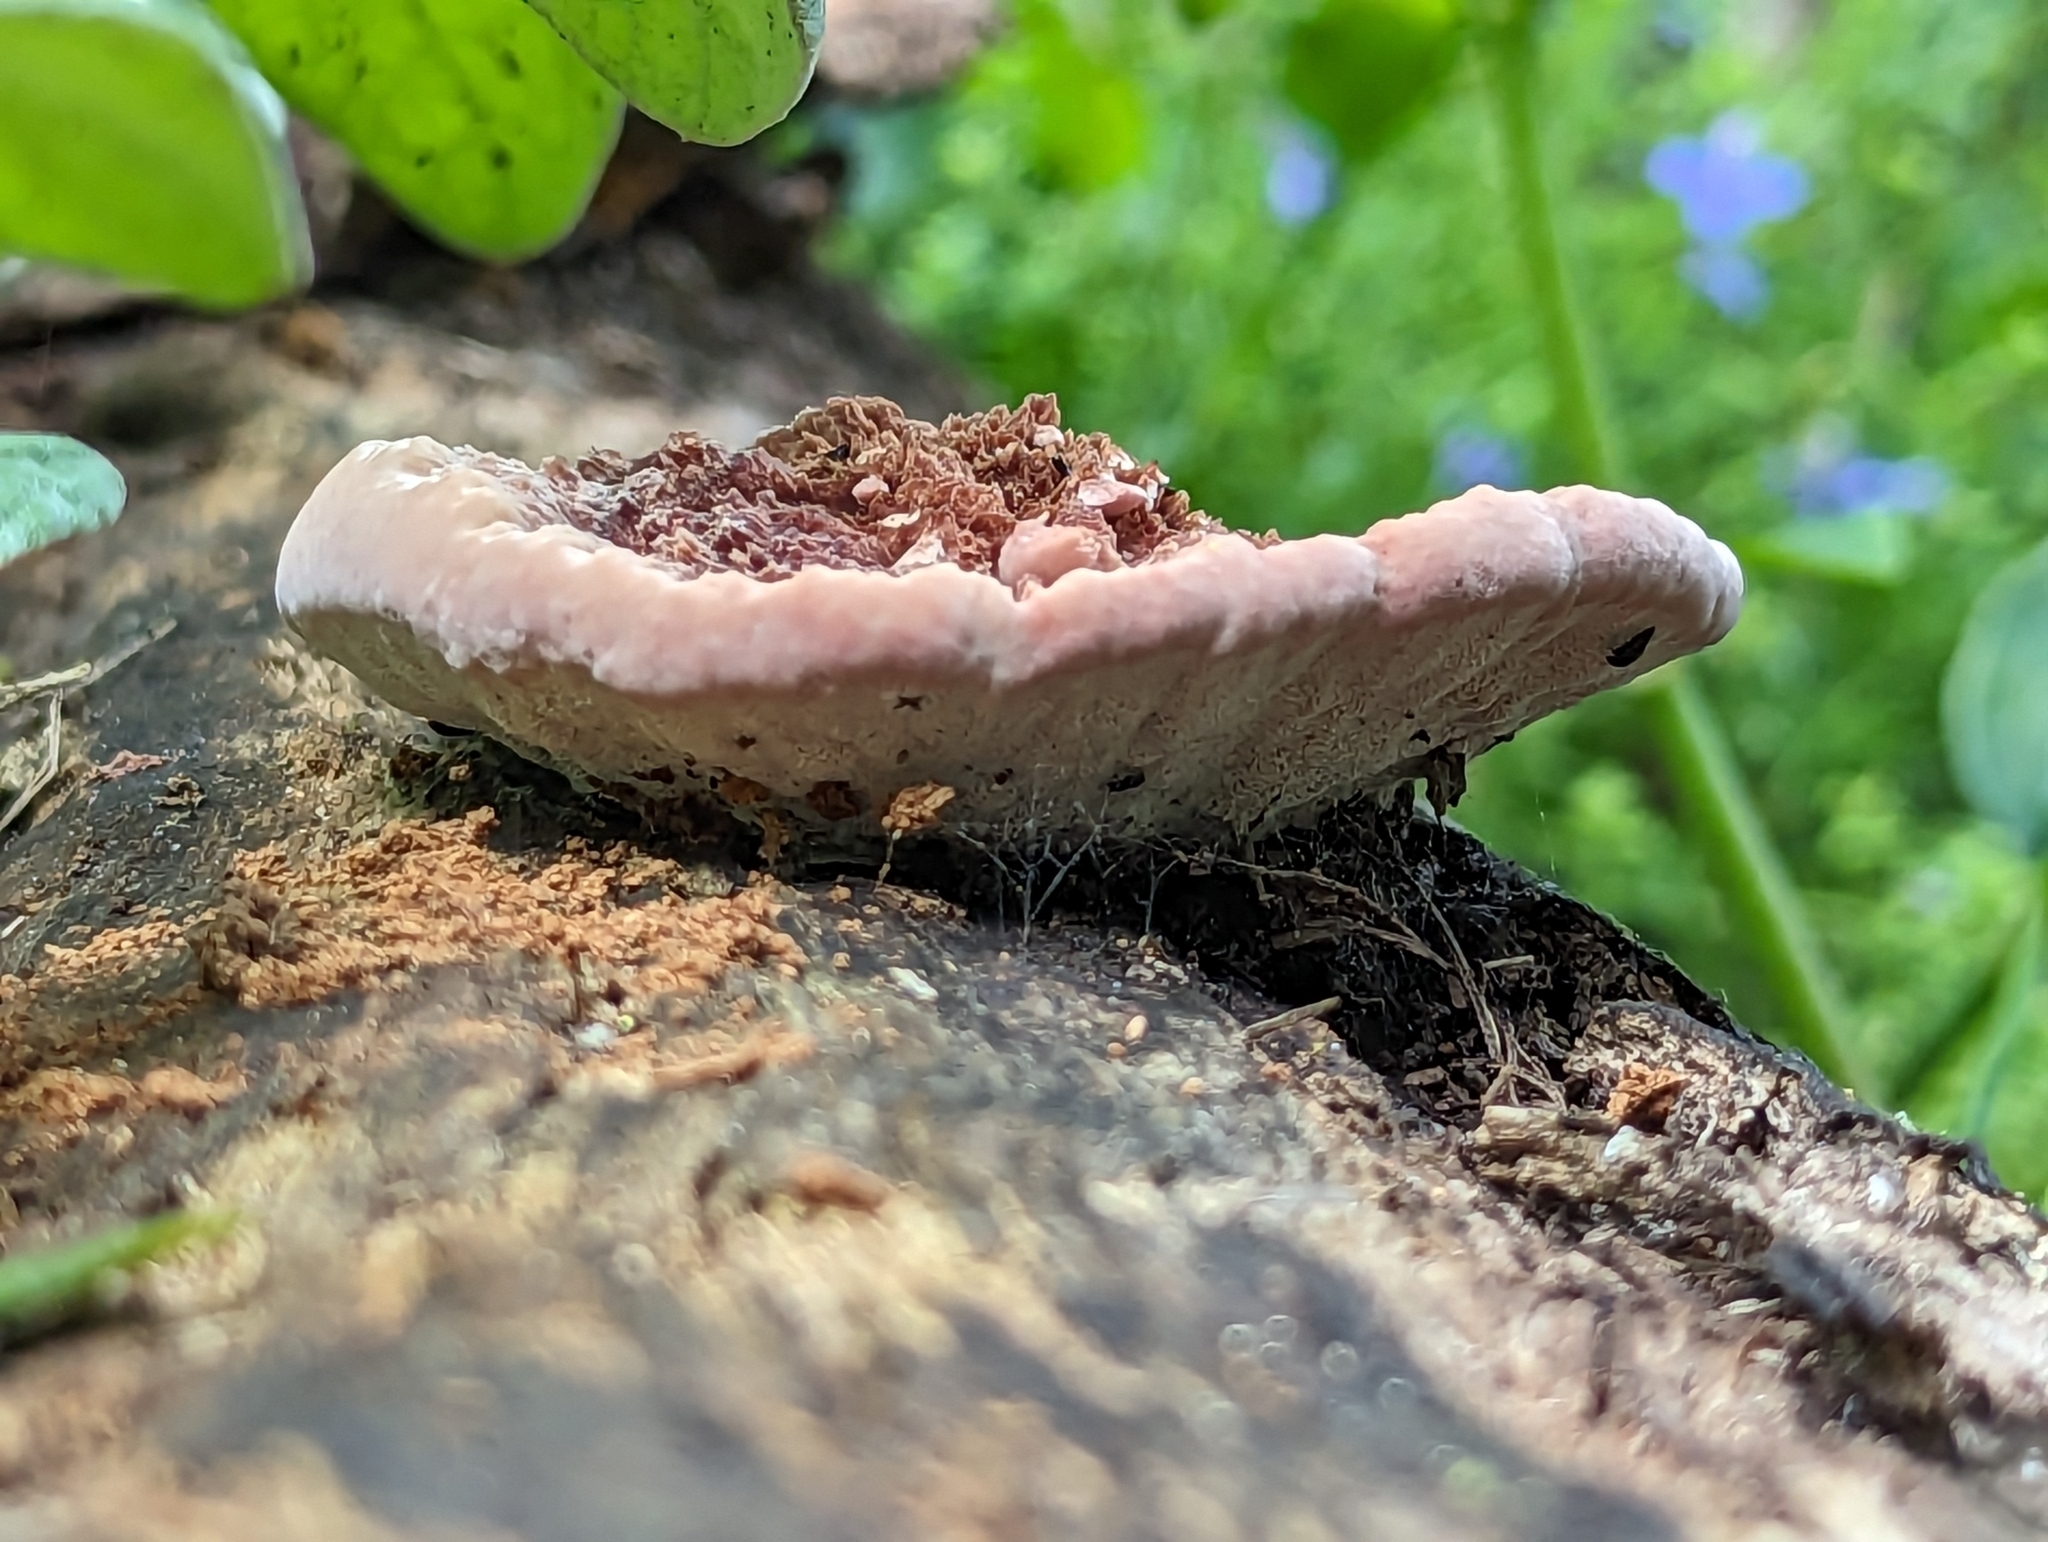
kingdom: Fungi
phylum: Basidiomycota
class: Agaricomycetes
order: Polyporales
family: Fomitopsidaceae
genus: Rhodofomitopsis
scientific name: Rhodofomitopsis lilacinogilva
